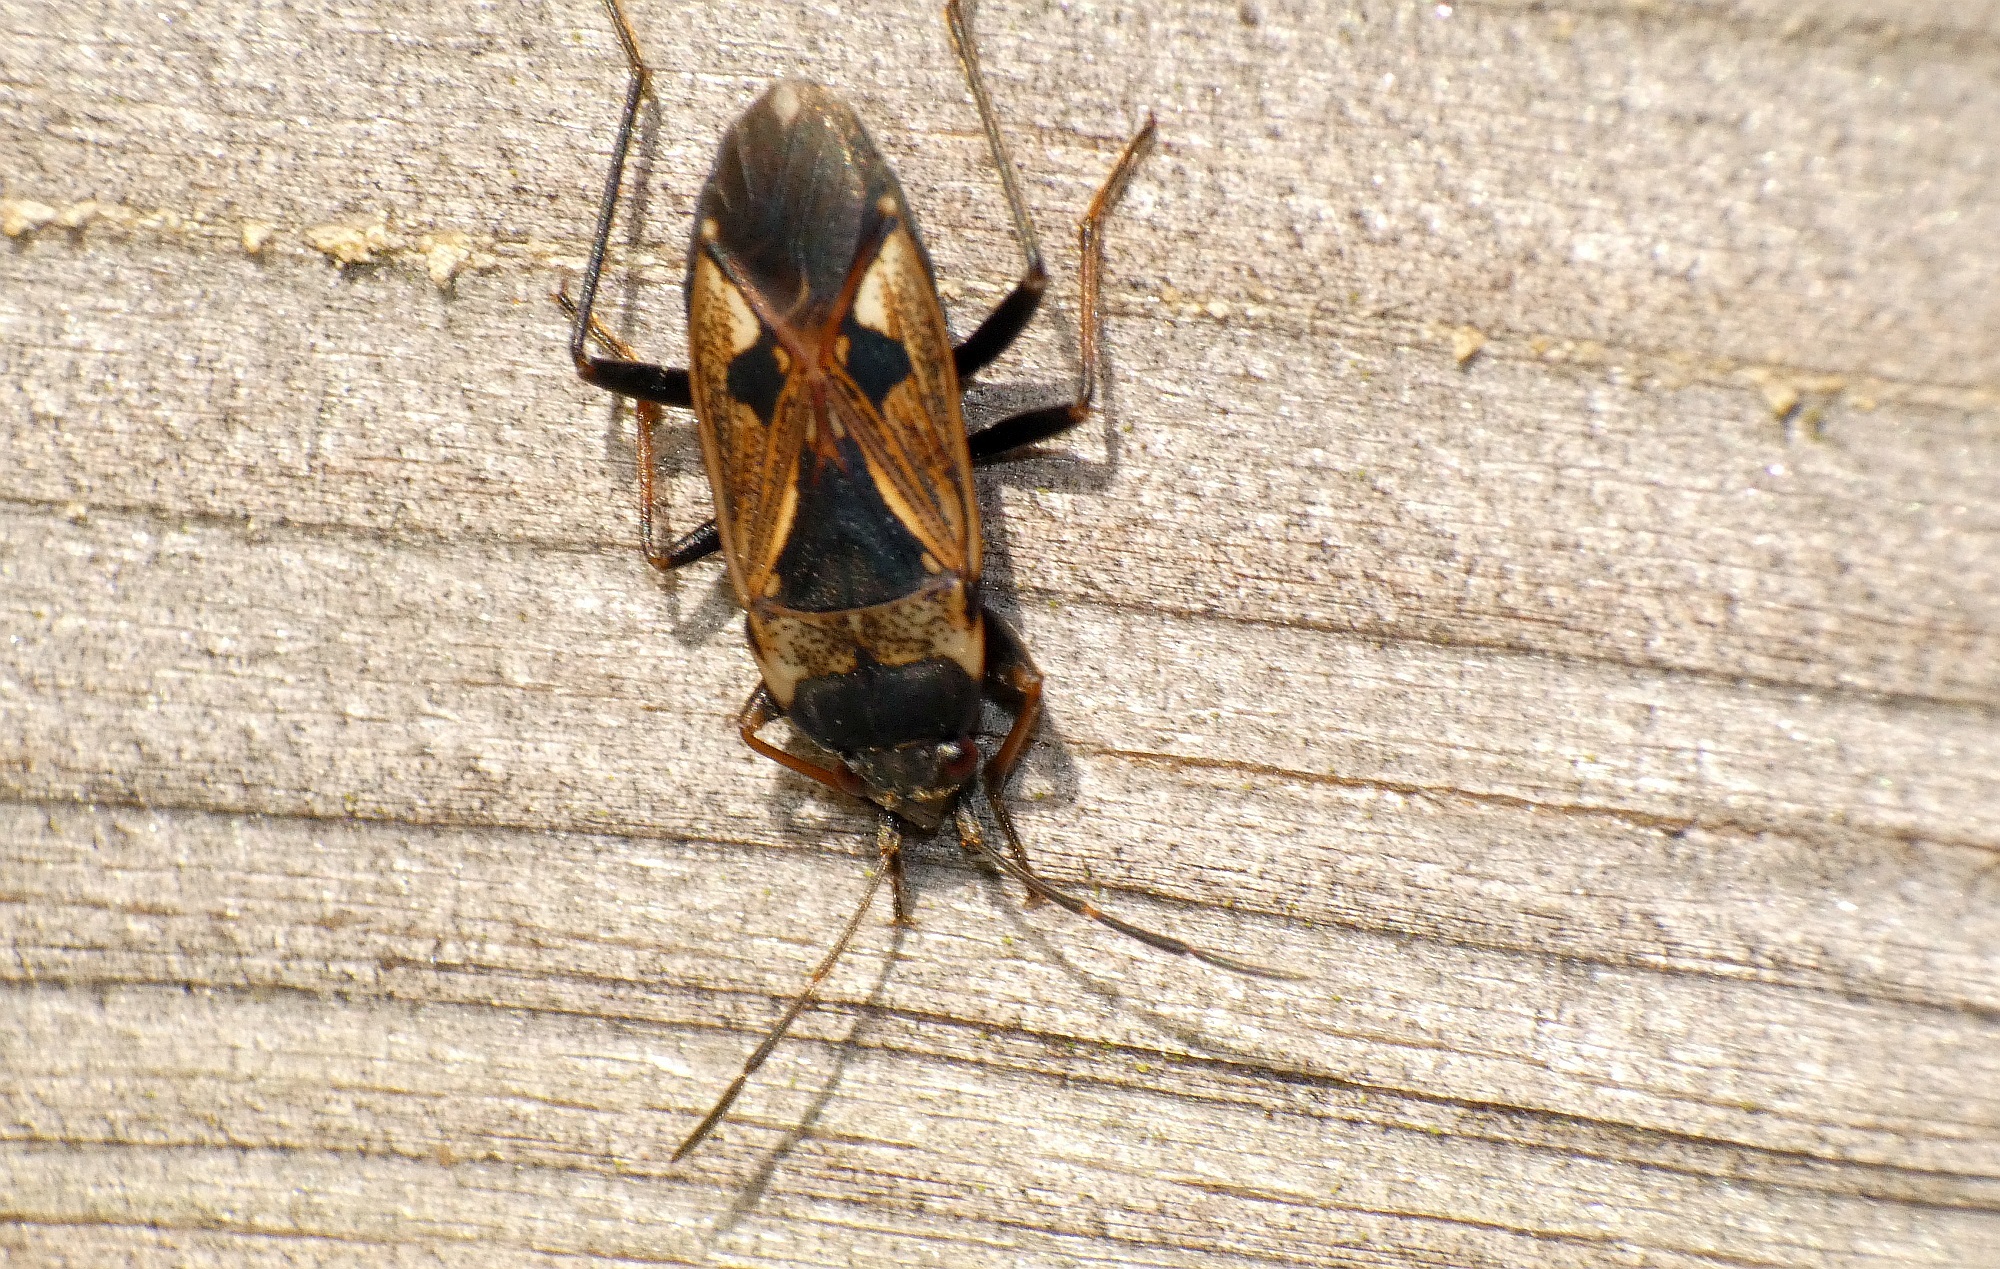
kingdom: Animalia
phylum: Arthropoda
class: Insecta
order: Hemiptera
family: Rhyparochromidae
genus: Rhyparochromus
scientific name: Rhyparochromus vulgaris
